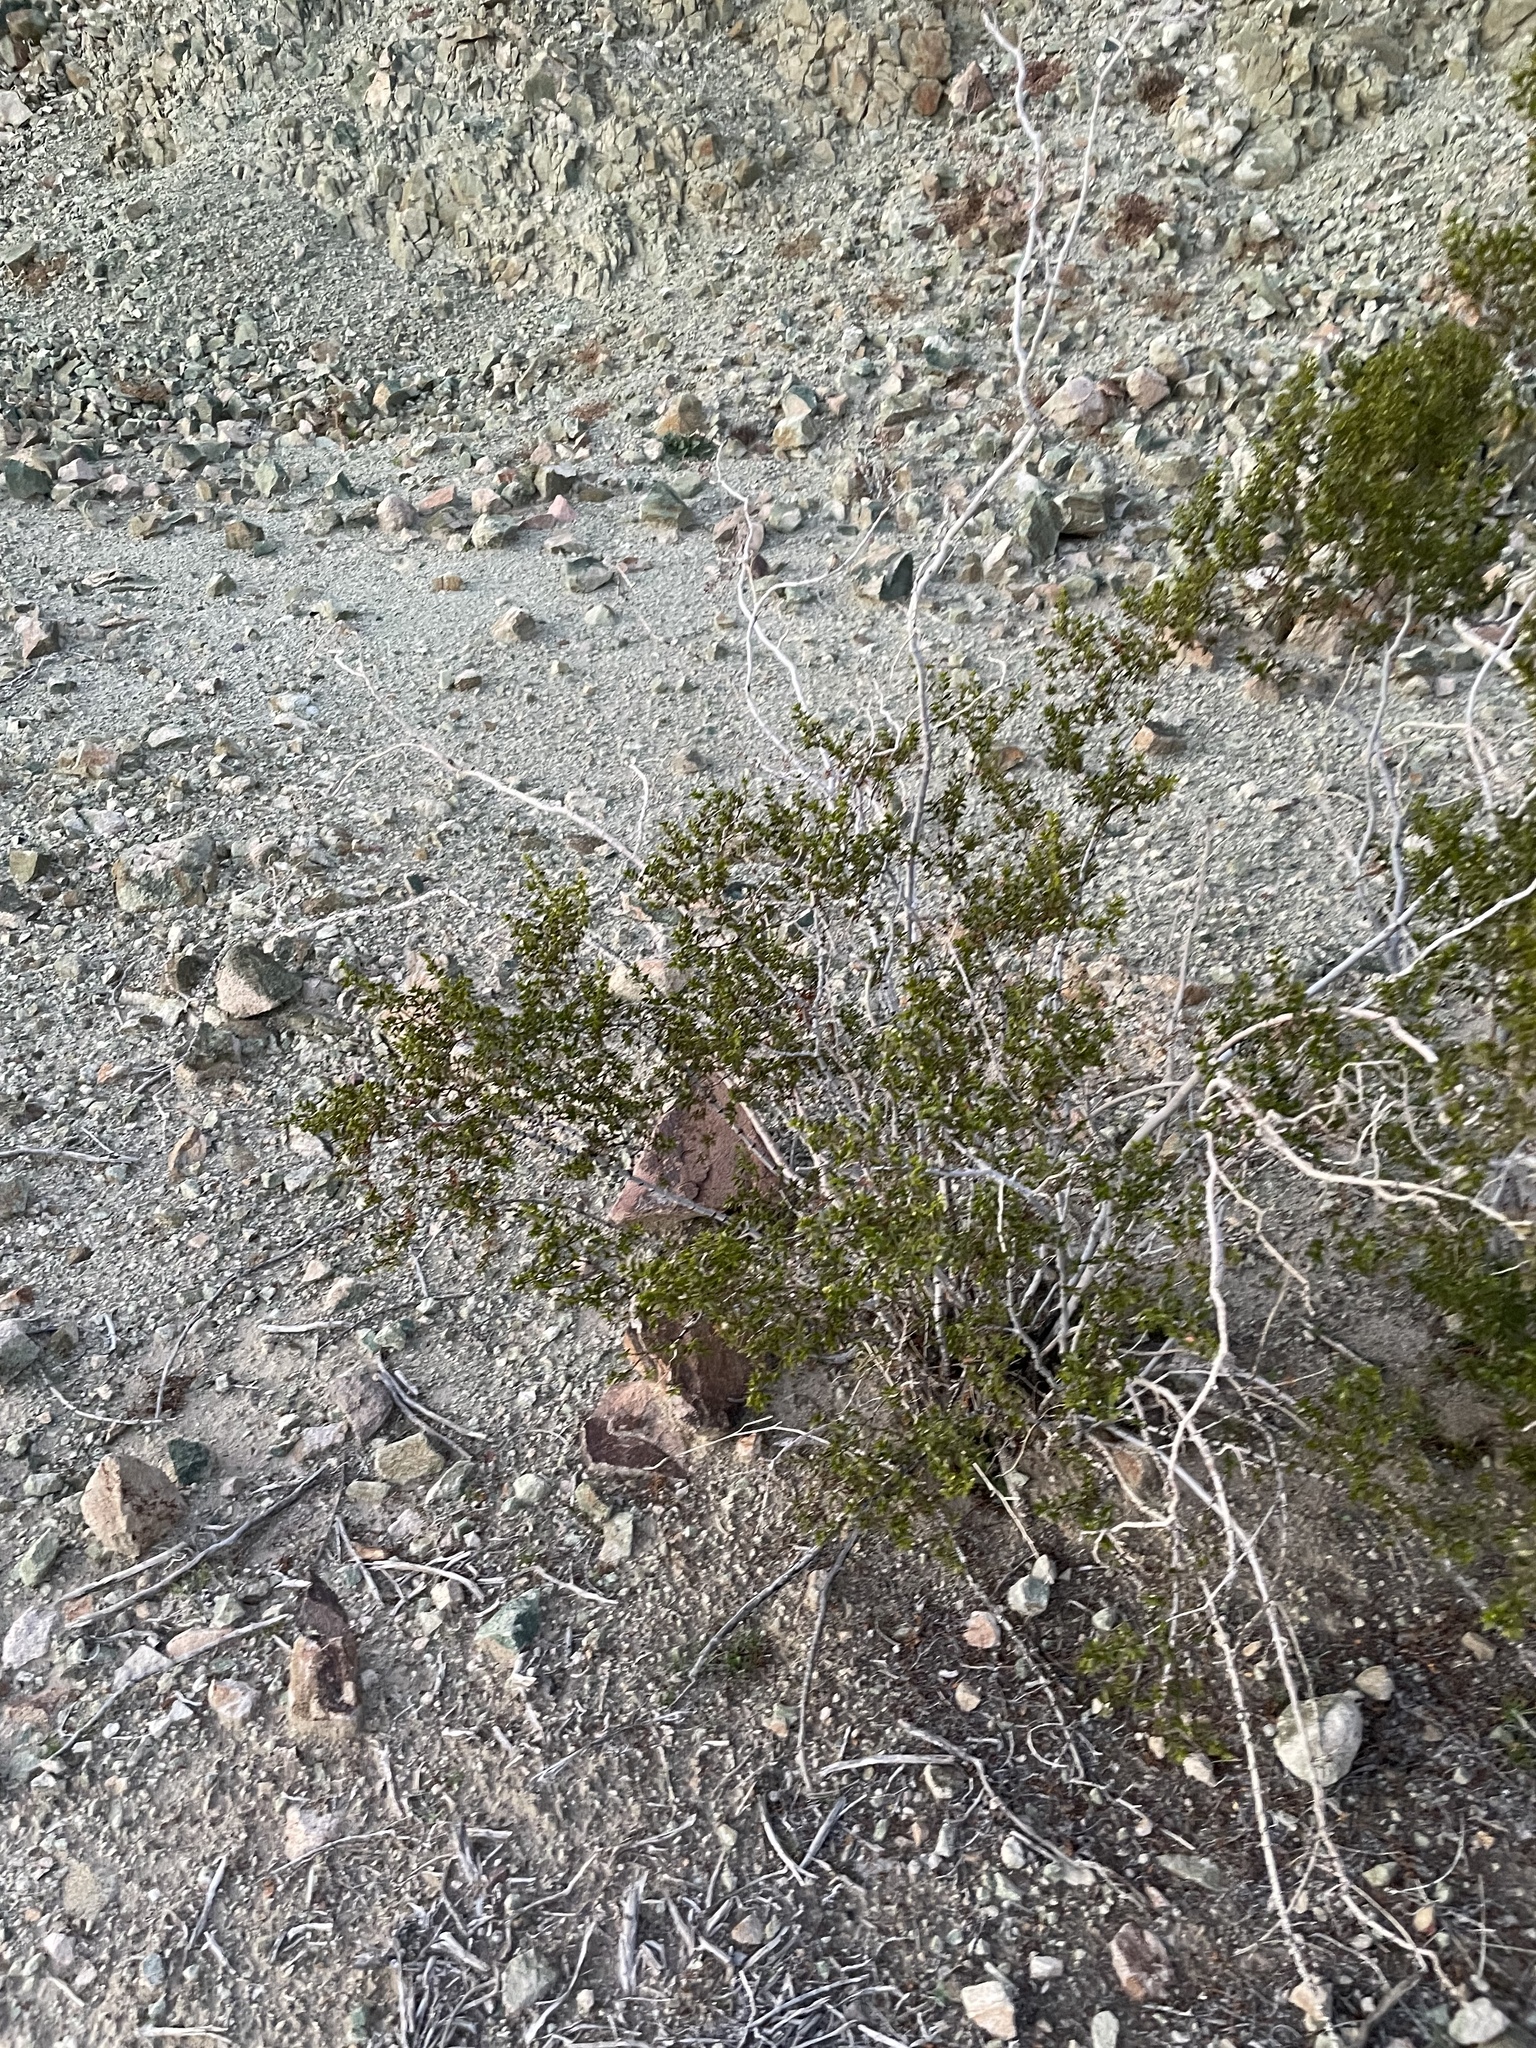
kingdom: Plantae
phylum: Tracheophyta
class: Magnoliopsida
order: Zygophyllales
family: Zygophyllaceae
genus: Larrea
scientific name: Larrea tridentata
